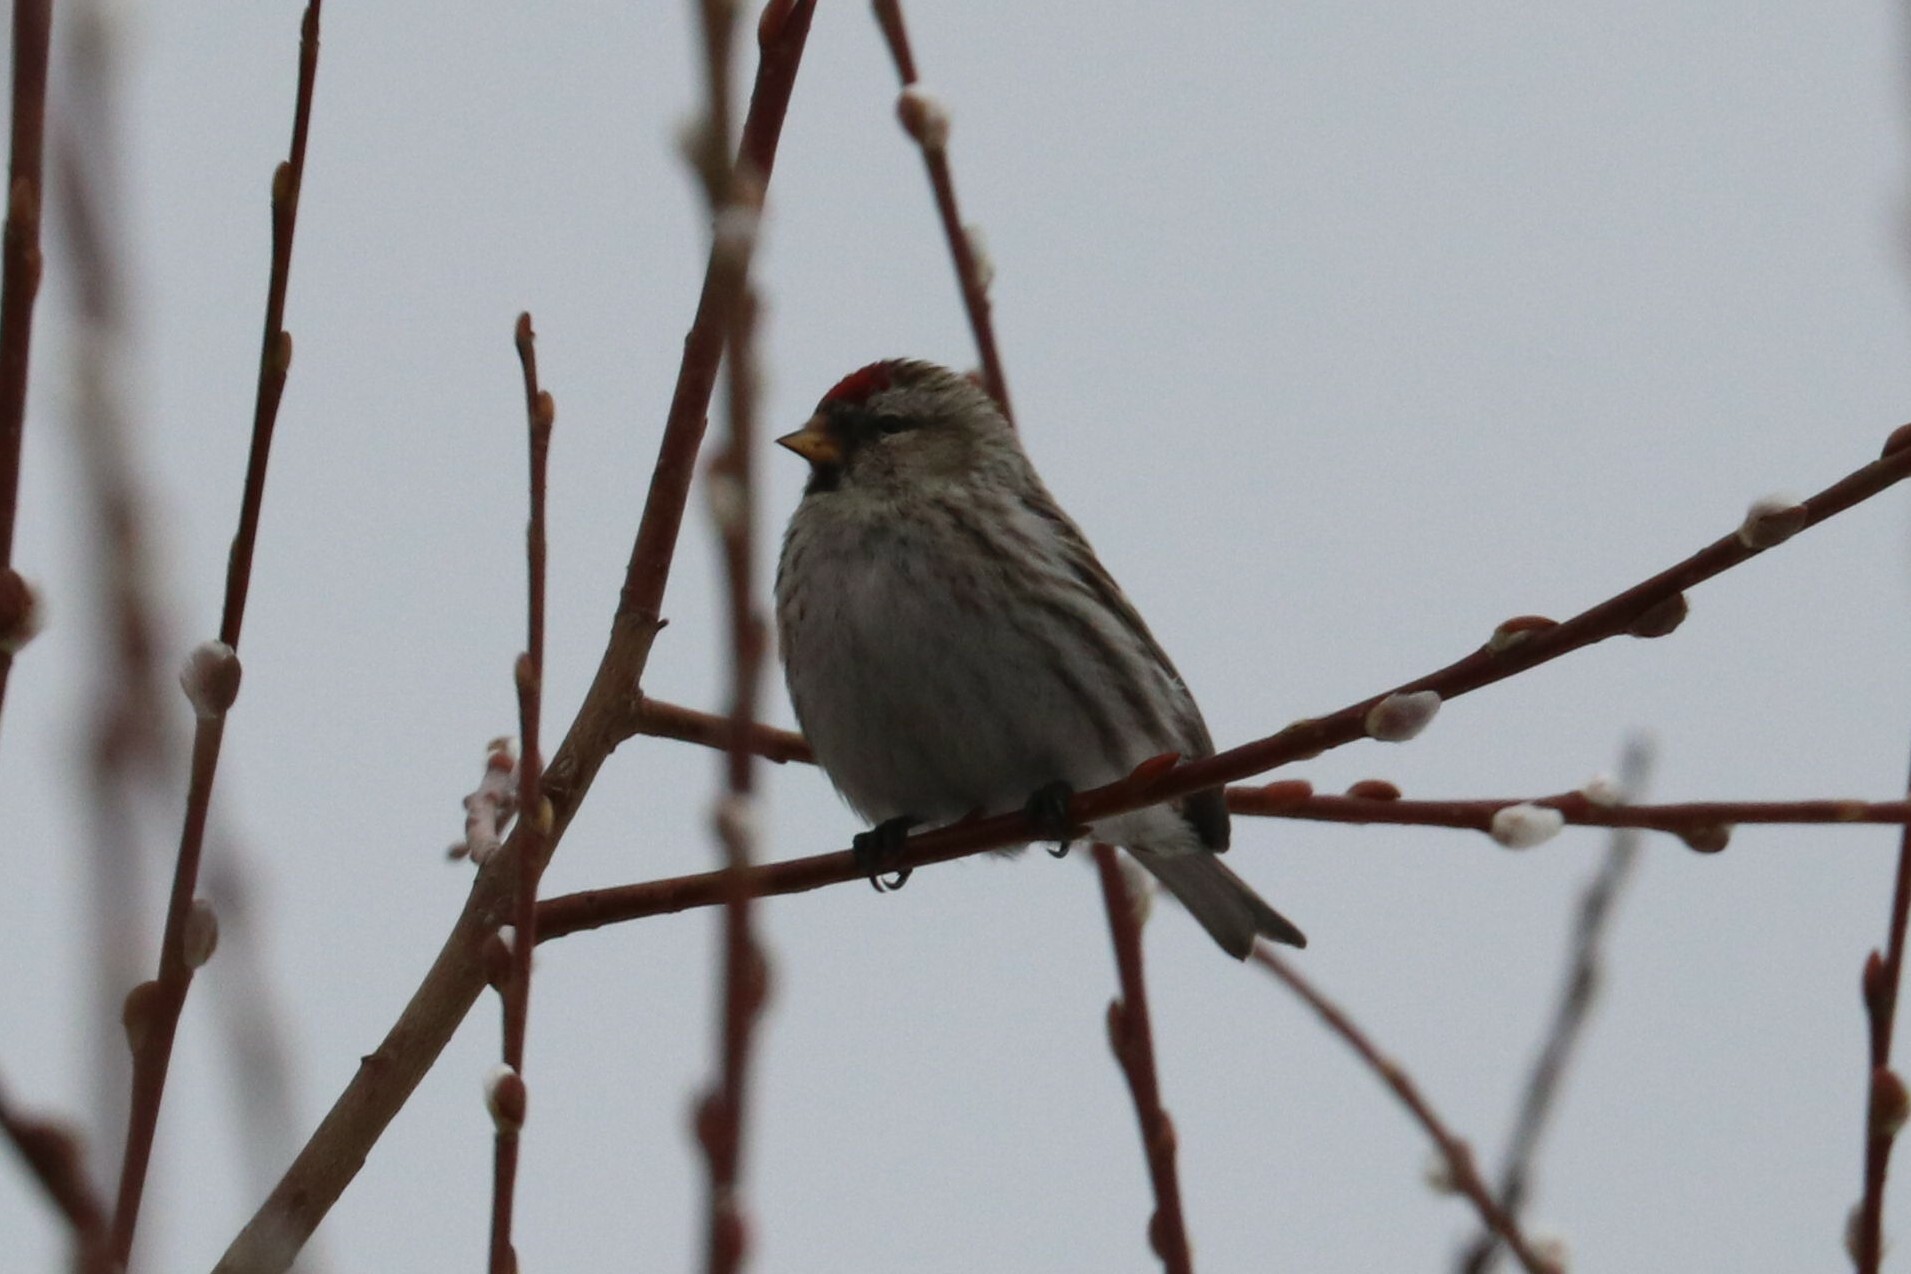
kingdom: Animalia
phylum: Chordata
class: Aves
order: Passeriformes
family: Fringillidae
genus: Acanthis
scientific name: Acanthis flammea
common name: Common redpoll
